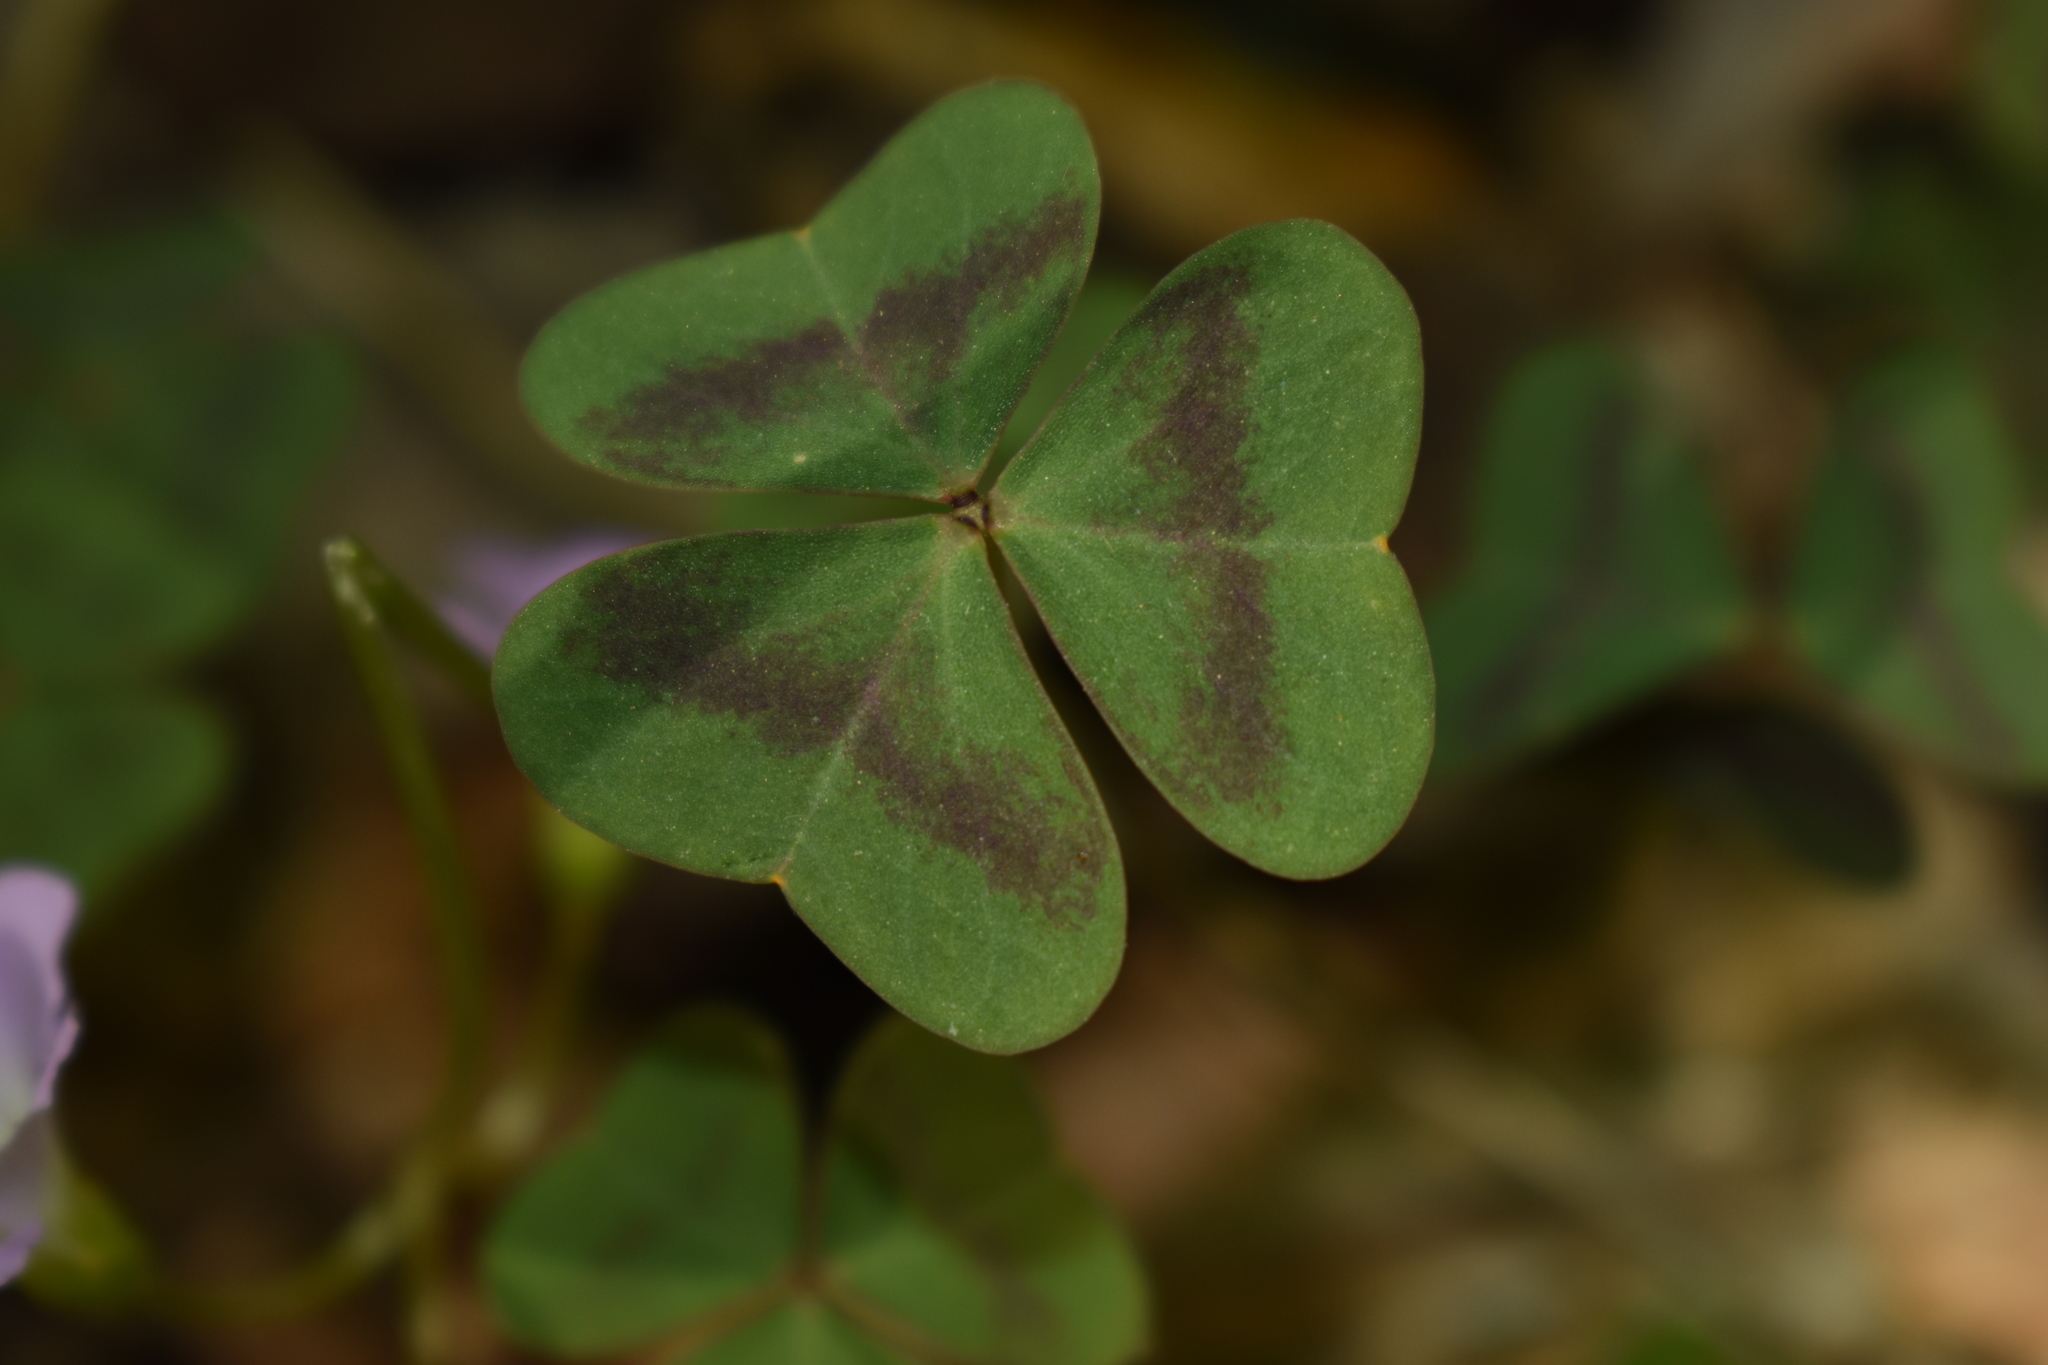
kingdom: Plantae
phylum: Tracheophyta
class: Magnoliopsida
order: Oxalidales
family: Oxalidaceae
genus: Oxalis
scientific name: Oxalis violacea
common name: Violet wood-sorrel
